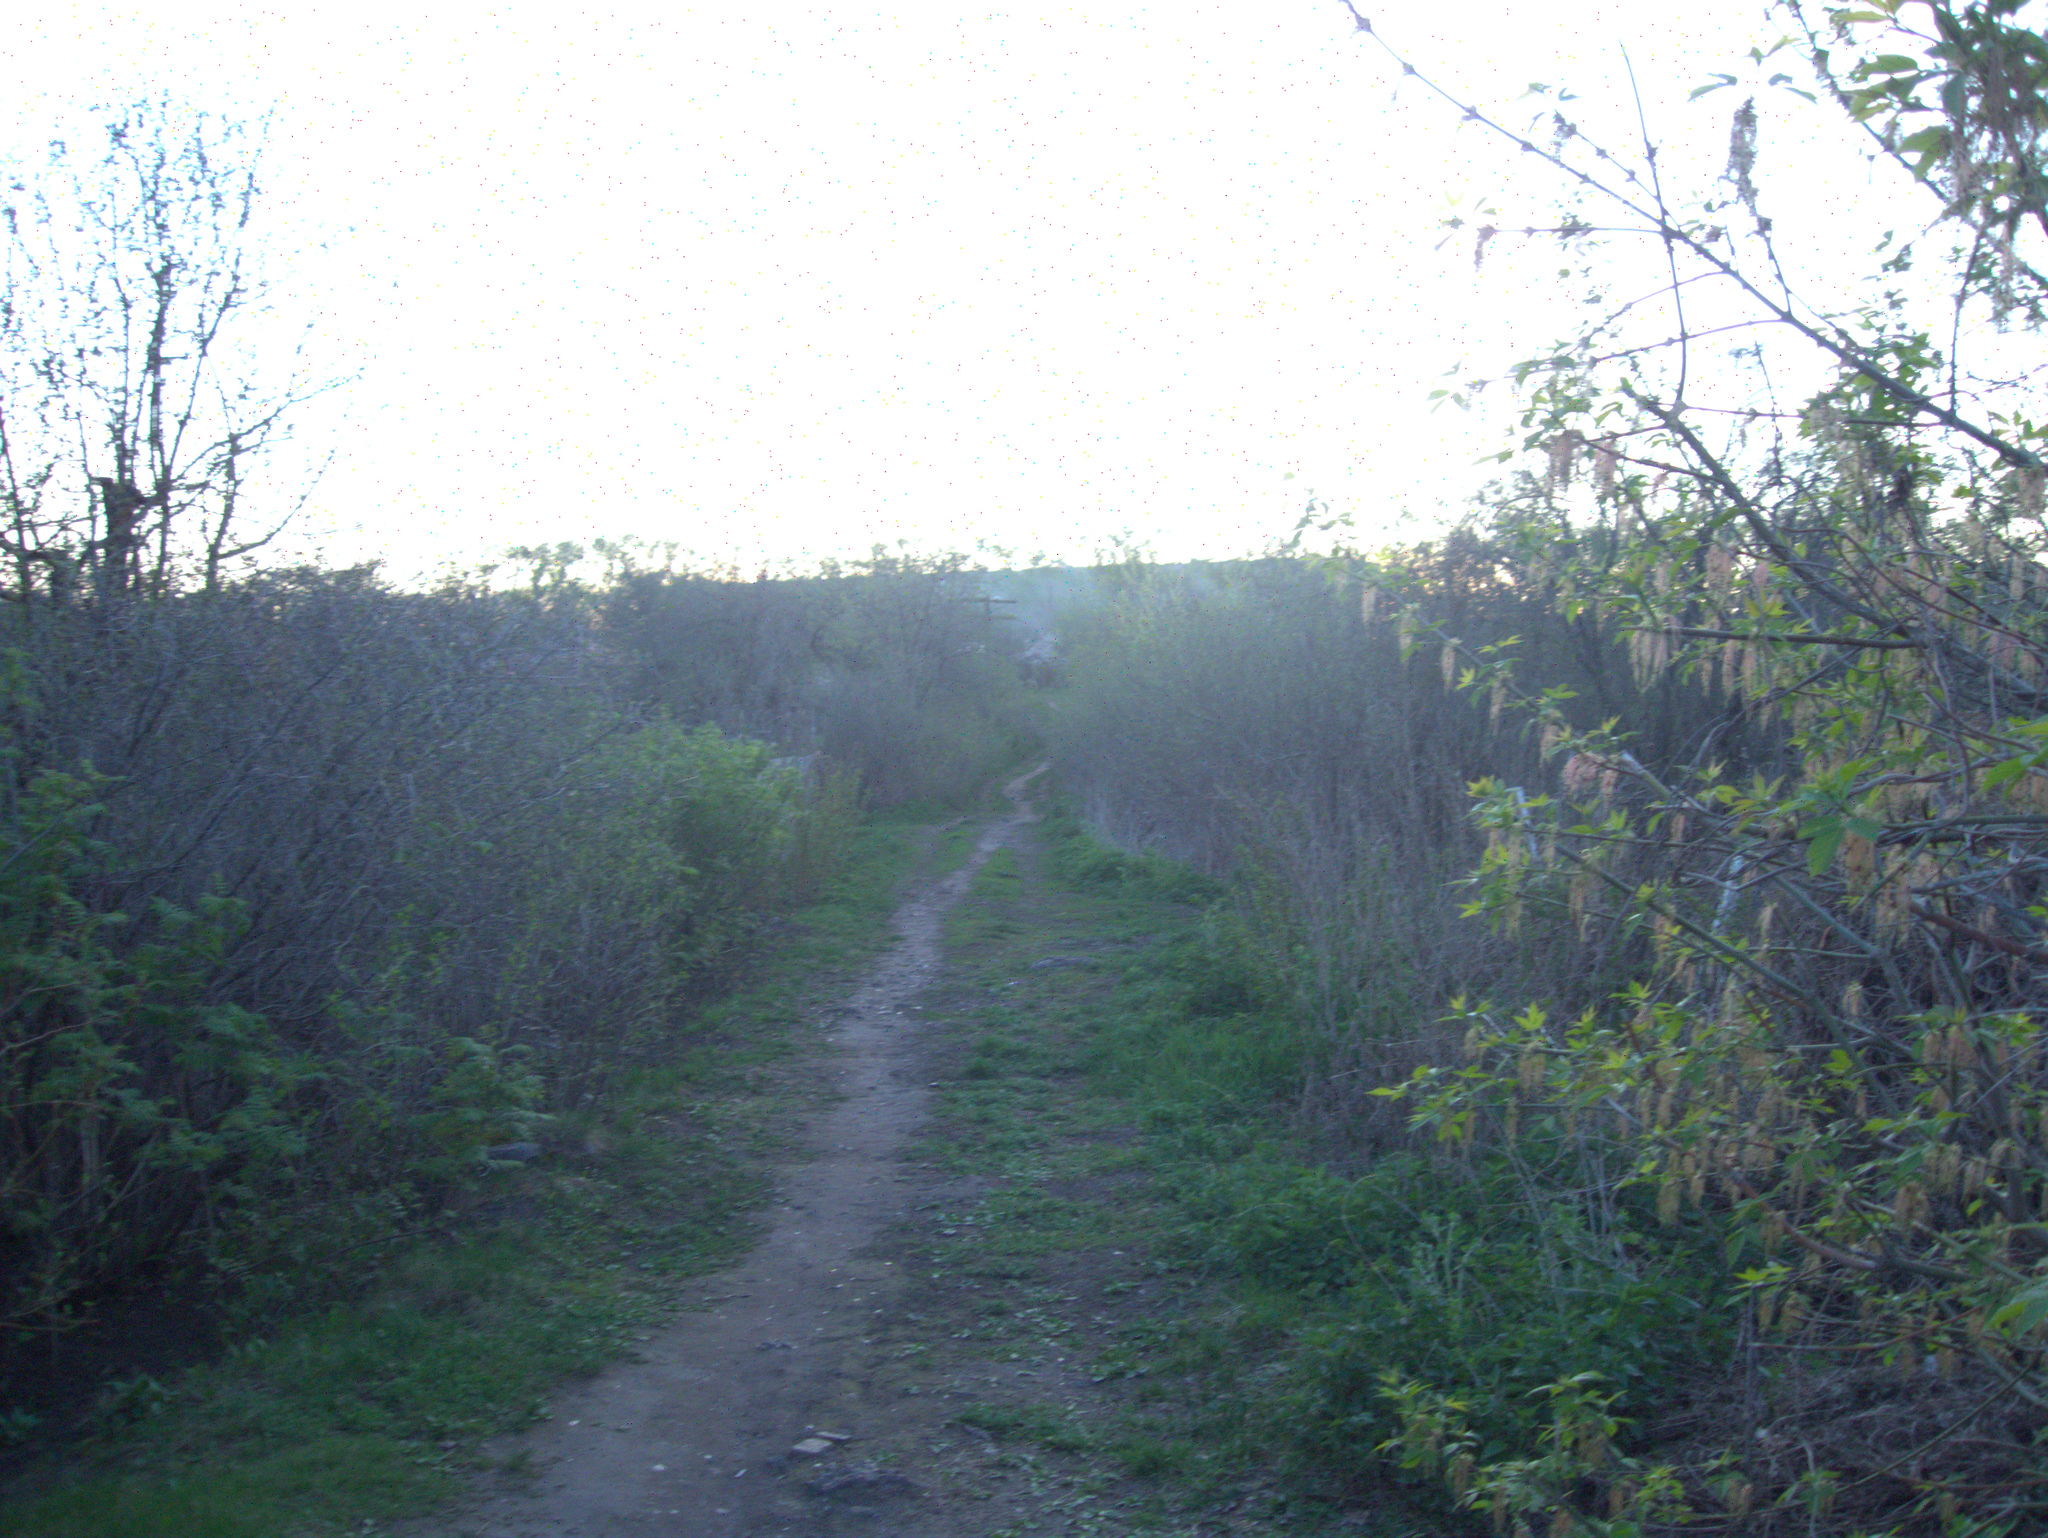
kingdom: Plantae
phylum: Tracheophyta
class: Magnoliopsida
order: Sapindales
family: Sapindaceae
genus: Acer
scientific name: Acer negundo
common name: Ashleaf maple
